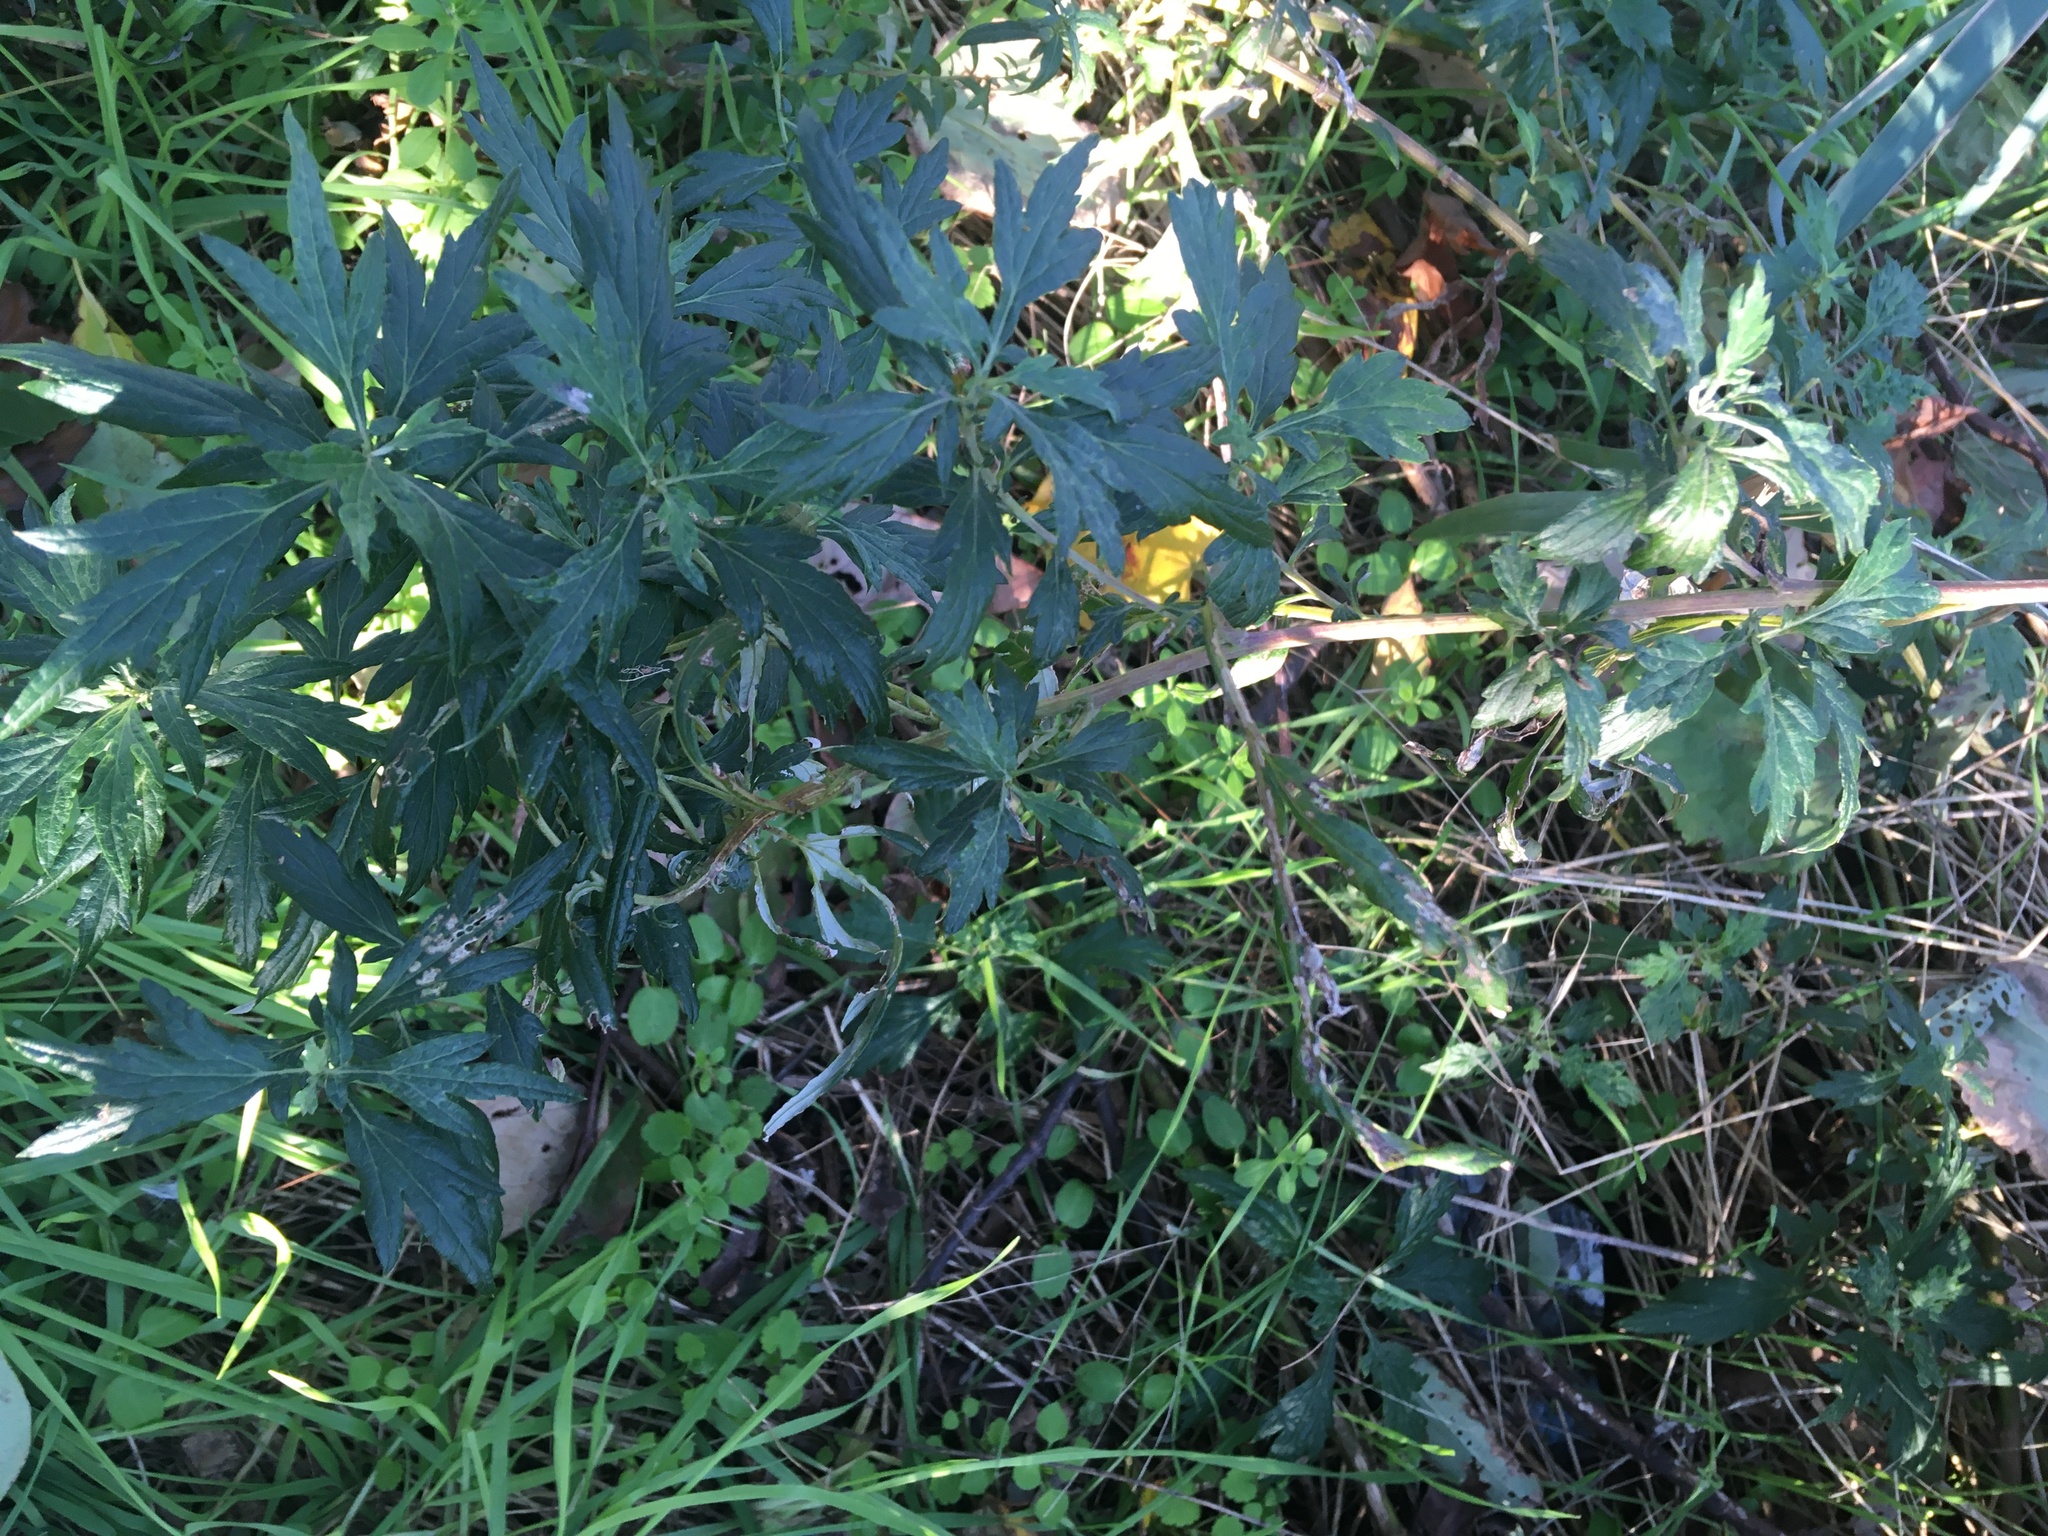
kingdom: Plantae
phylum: Tracheophyta
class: Magnoliopsida
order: Asterales
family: Asteraceae
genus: Artemisia
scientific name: Artemisia vulgaris
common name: Mugwort
